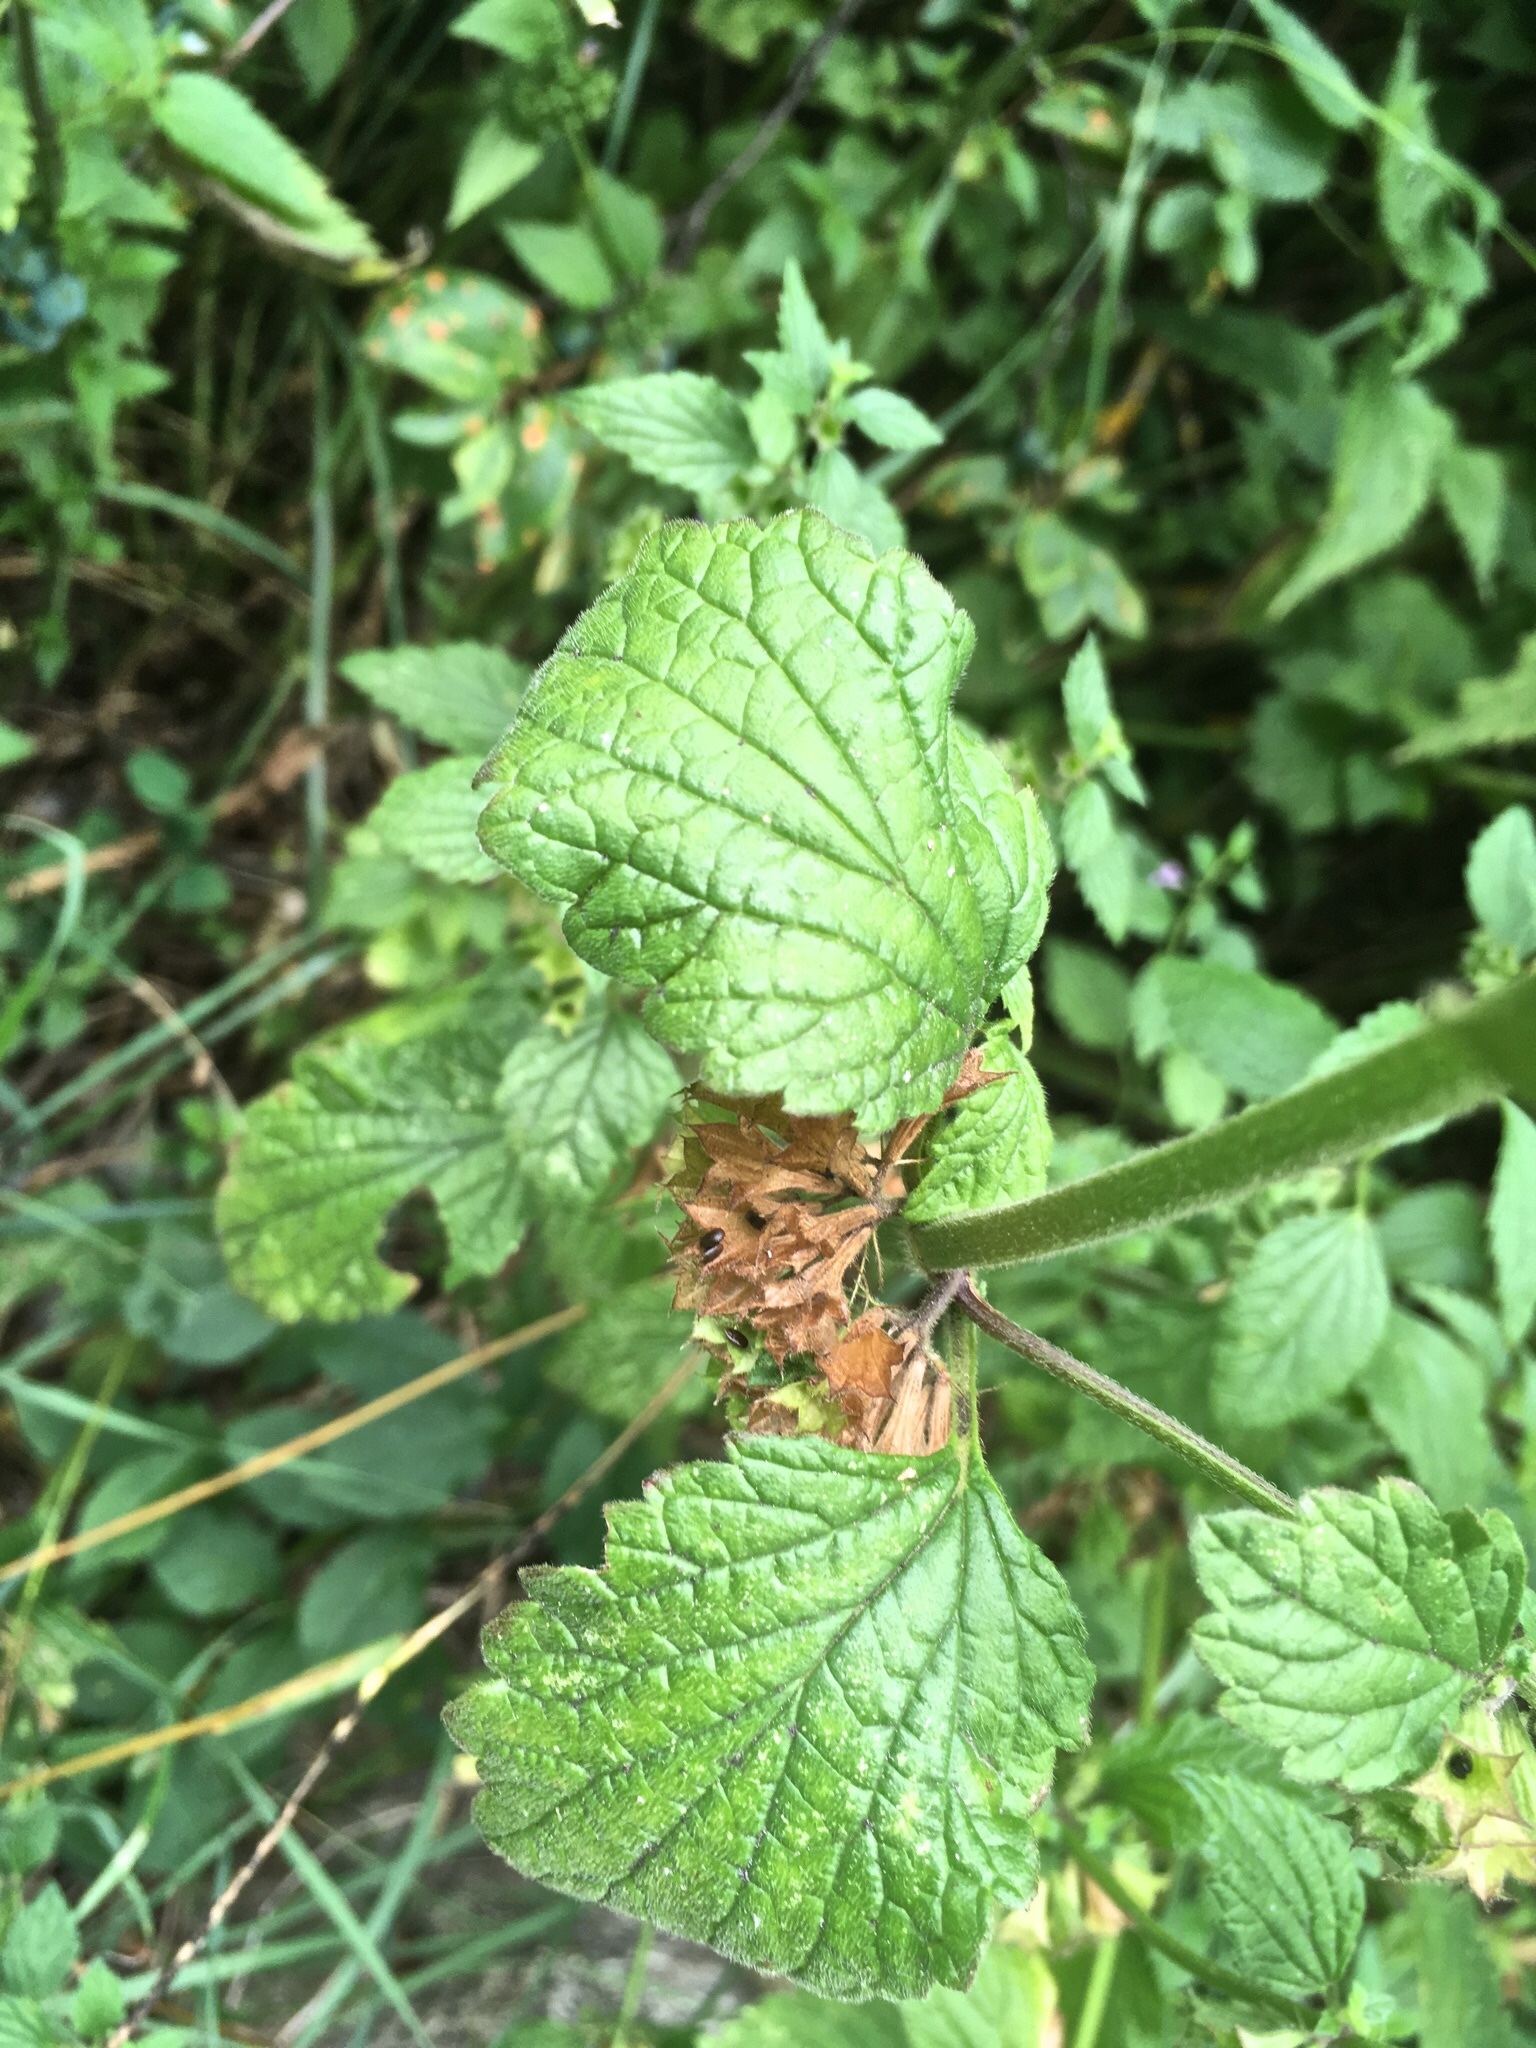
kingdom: Plantae
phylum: Tracheophyta
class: Magnoliopsida
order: Lamiales
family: Lamiaceae
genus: Ballota
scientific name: Ballota nigra
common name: Black horehound
